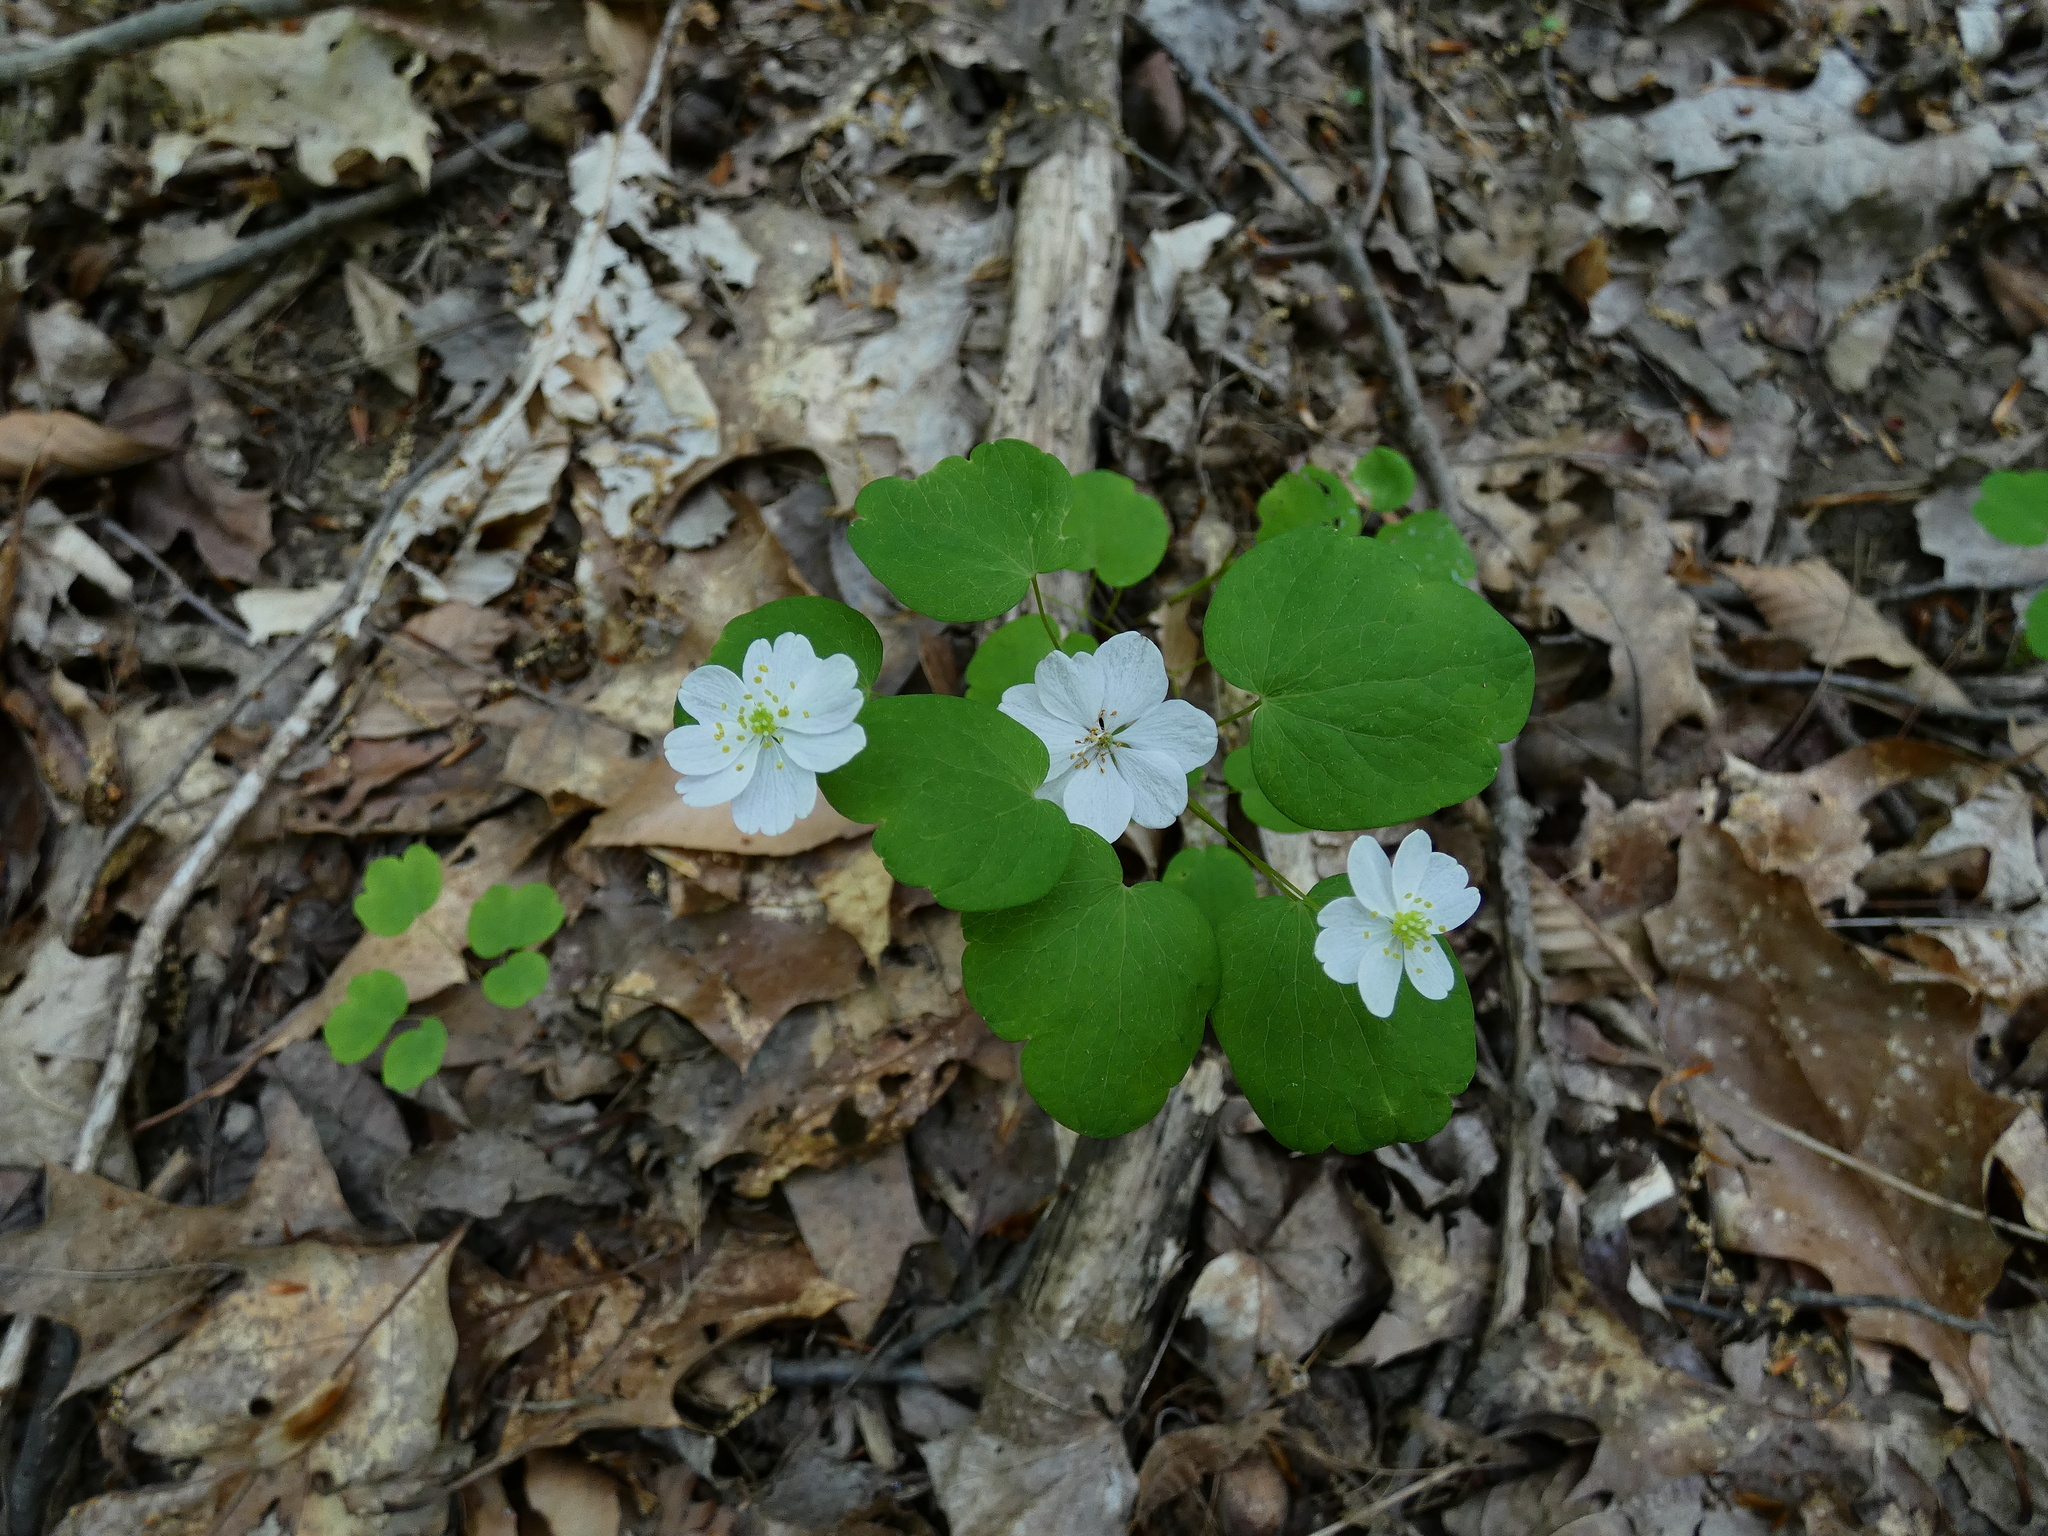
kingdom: Plantae
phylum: Tracheophyta
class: Magnoliopsida
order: Ranunculales
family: Ranunculaceae
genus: Thalictrum
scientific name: Thalictrum thalictroides
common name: Rue-anemone
